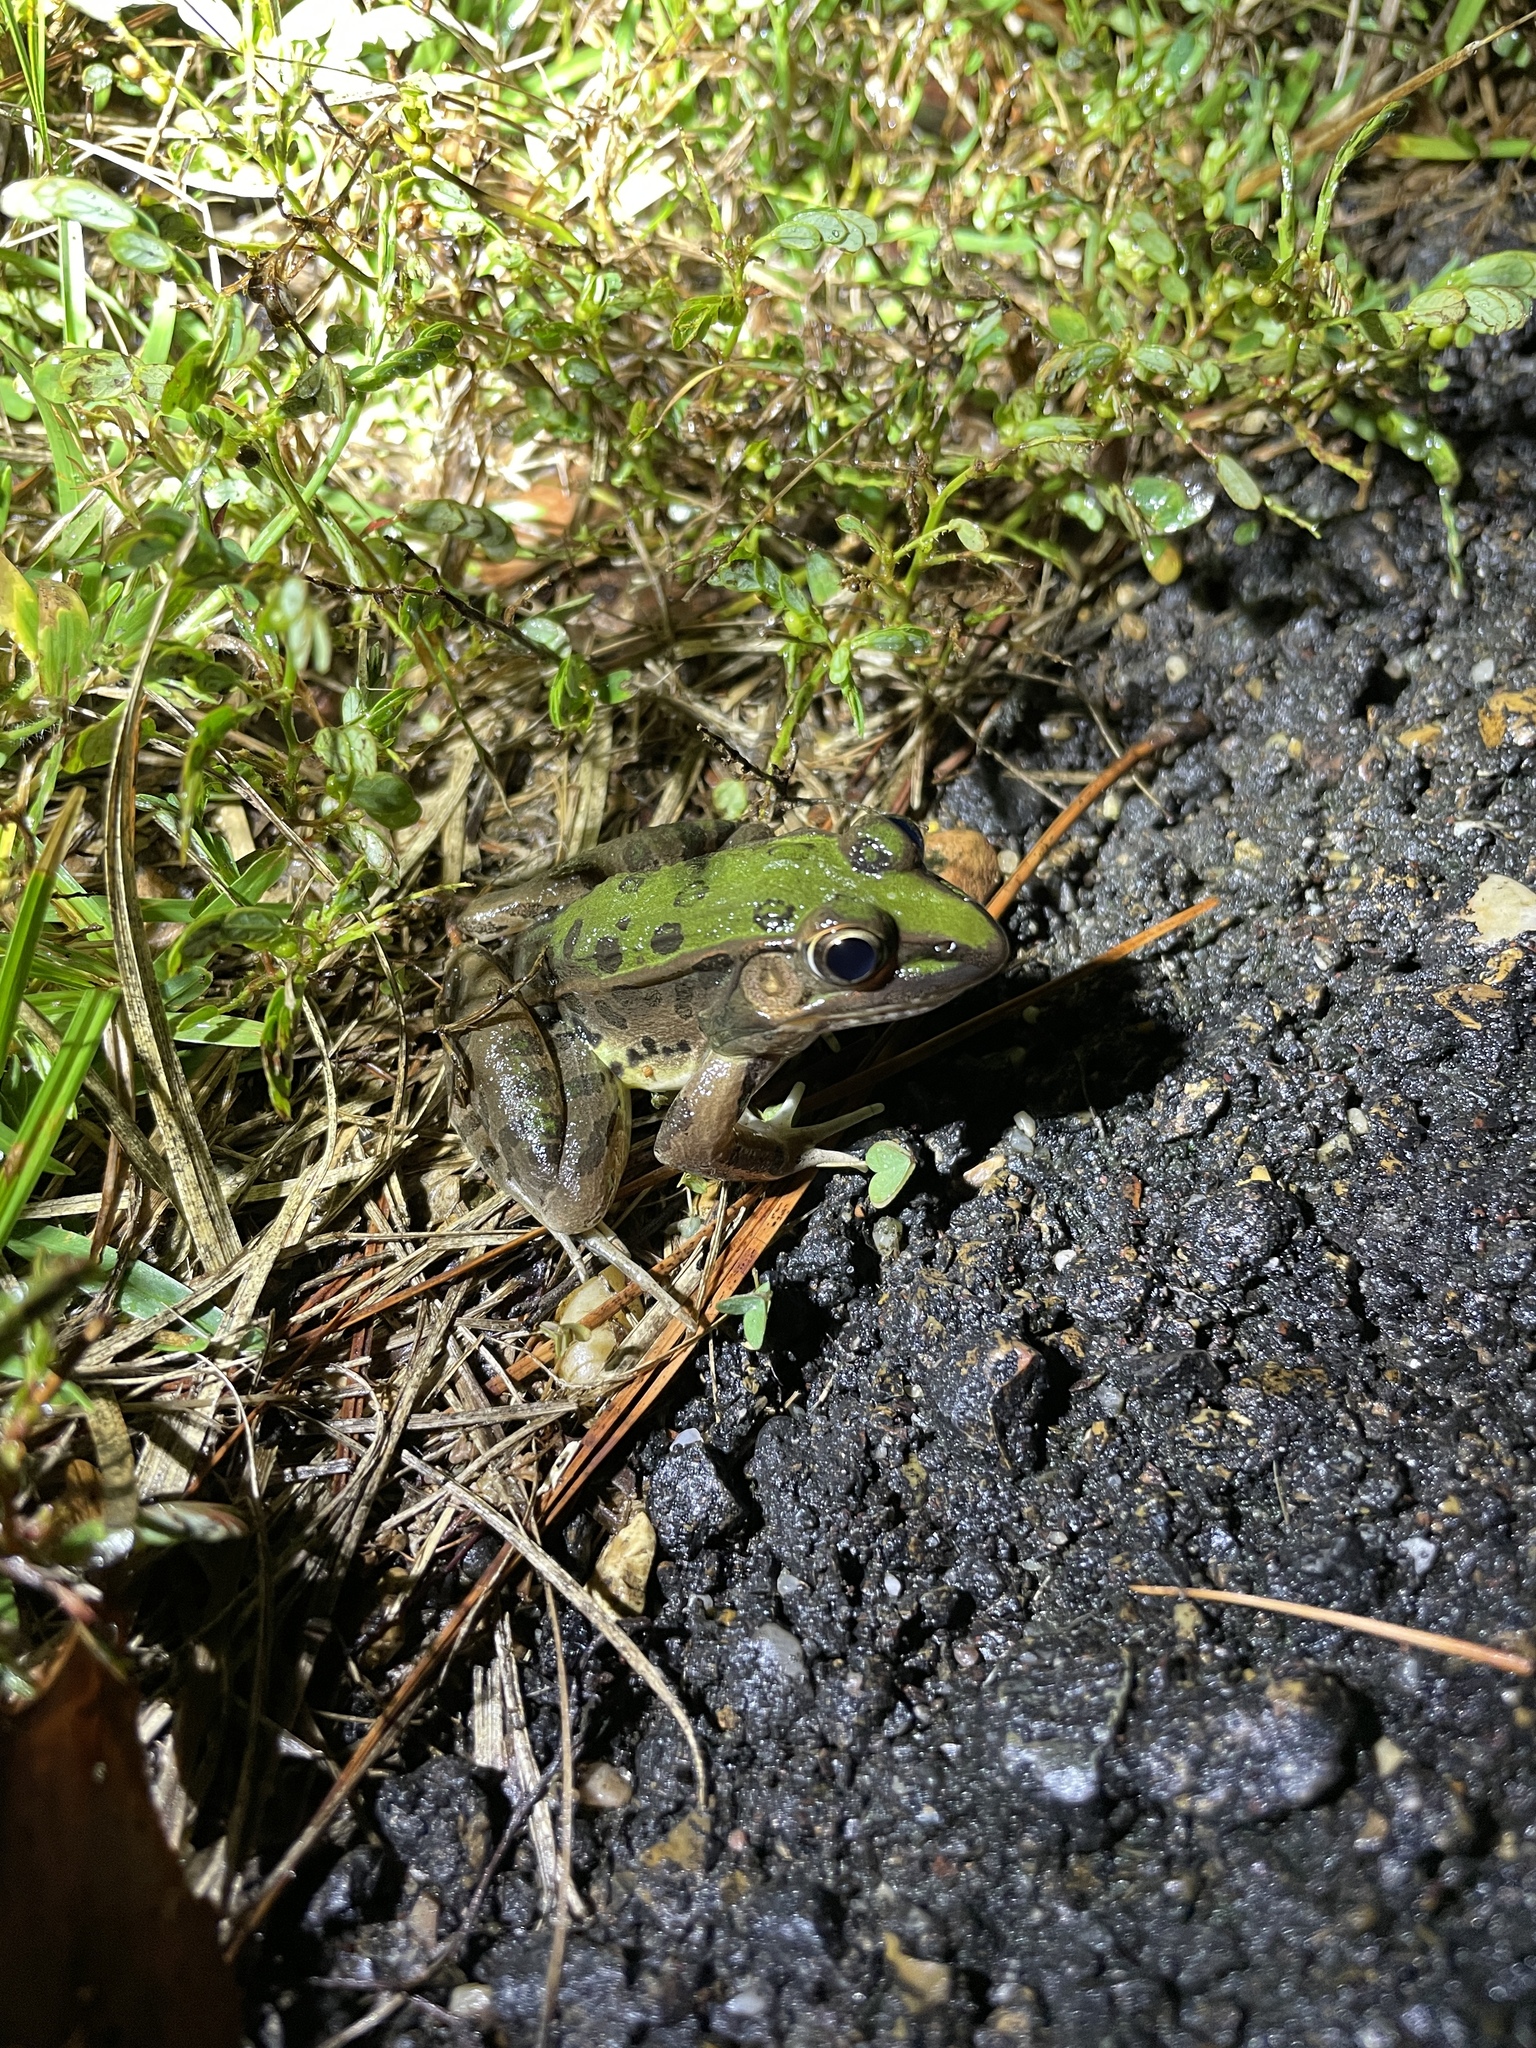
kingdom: Animalia
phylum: Chordata
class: Amphibia
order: Anura
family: Ranidae
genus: Lithobates
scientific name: Lithobates sphenocephalus
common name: Southern leopard frog
